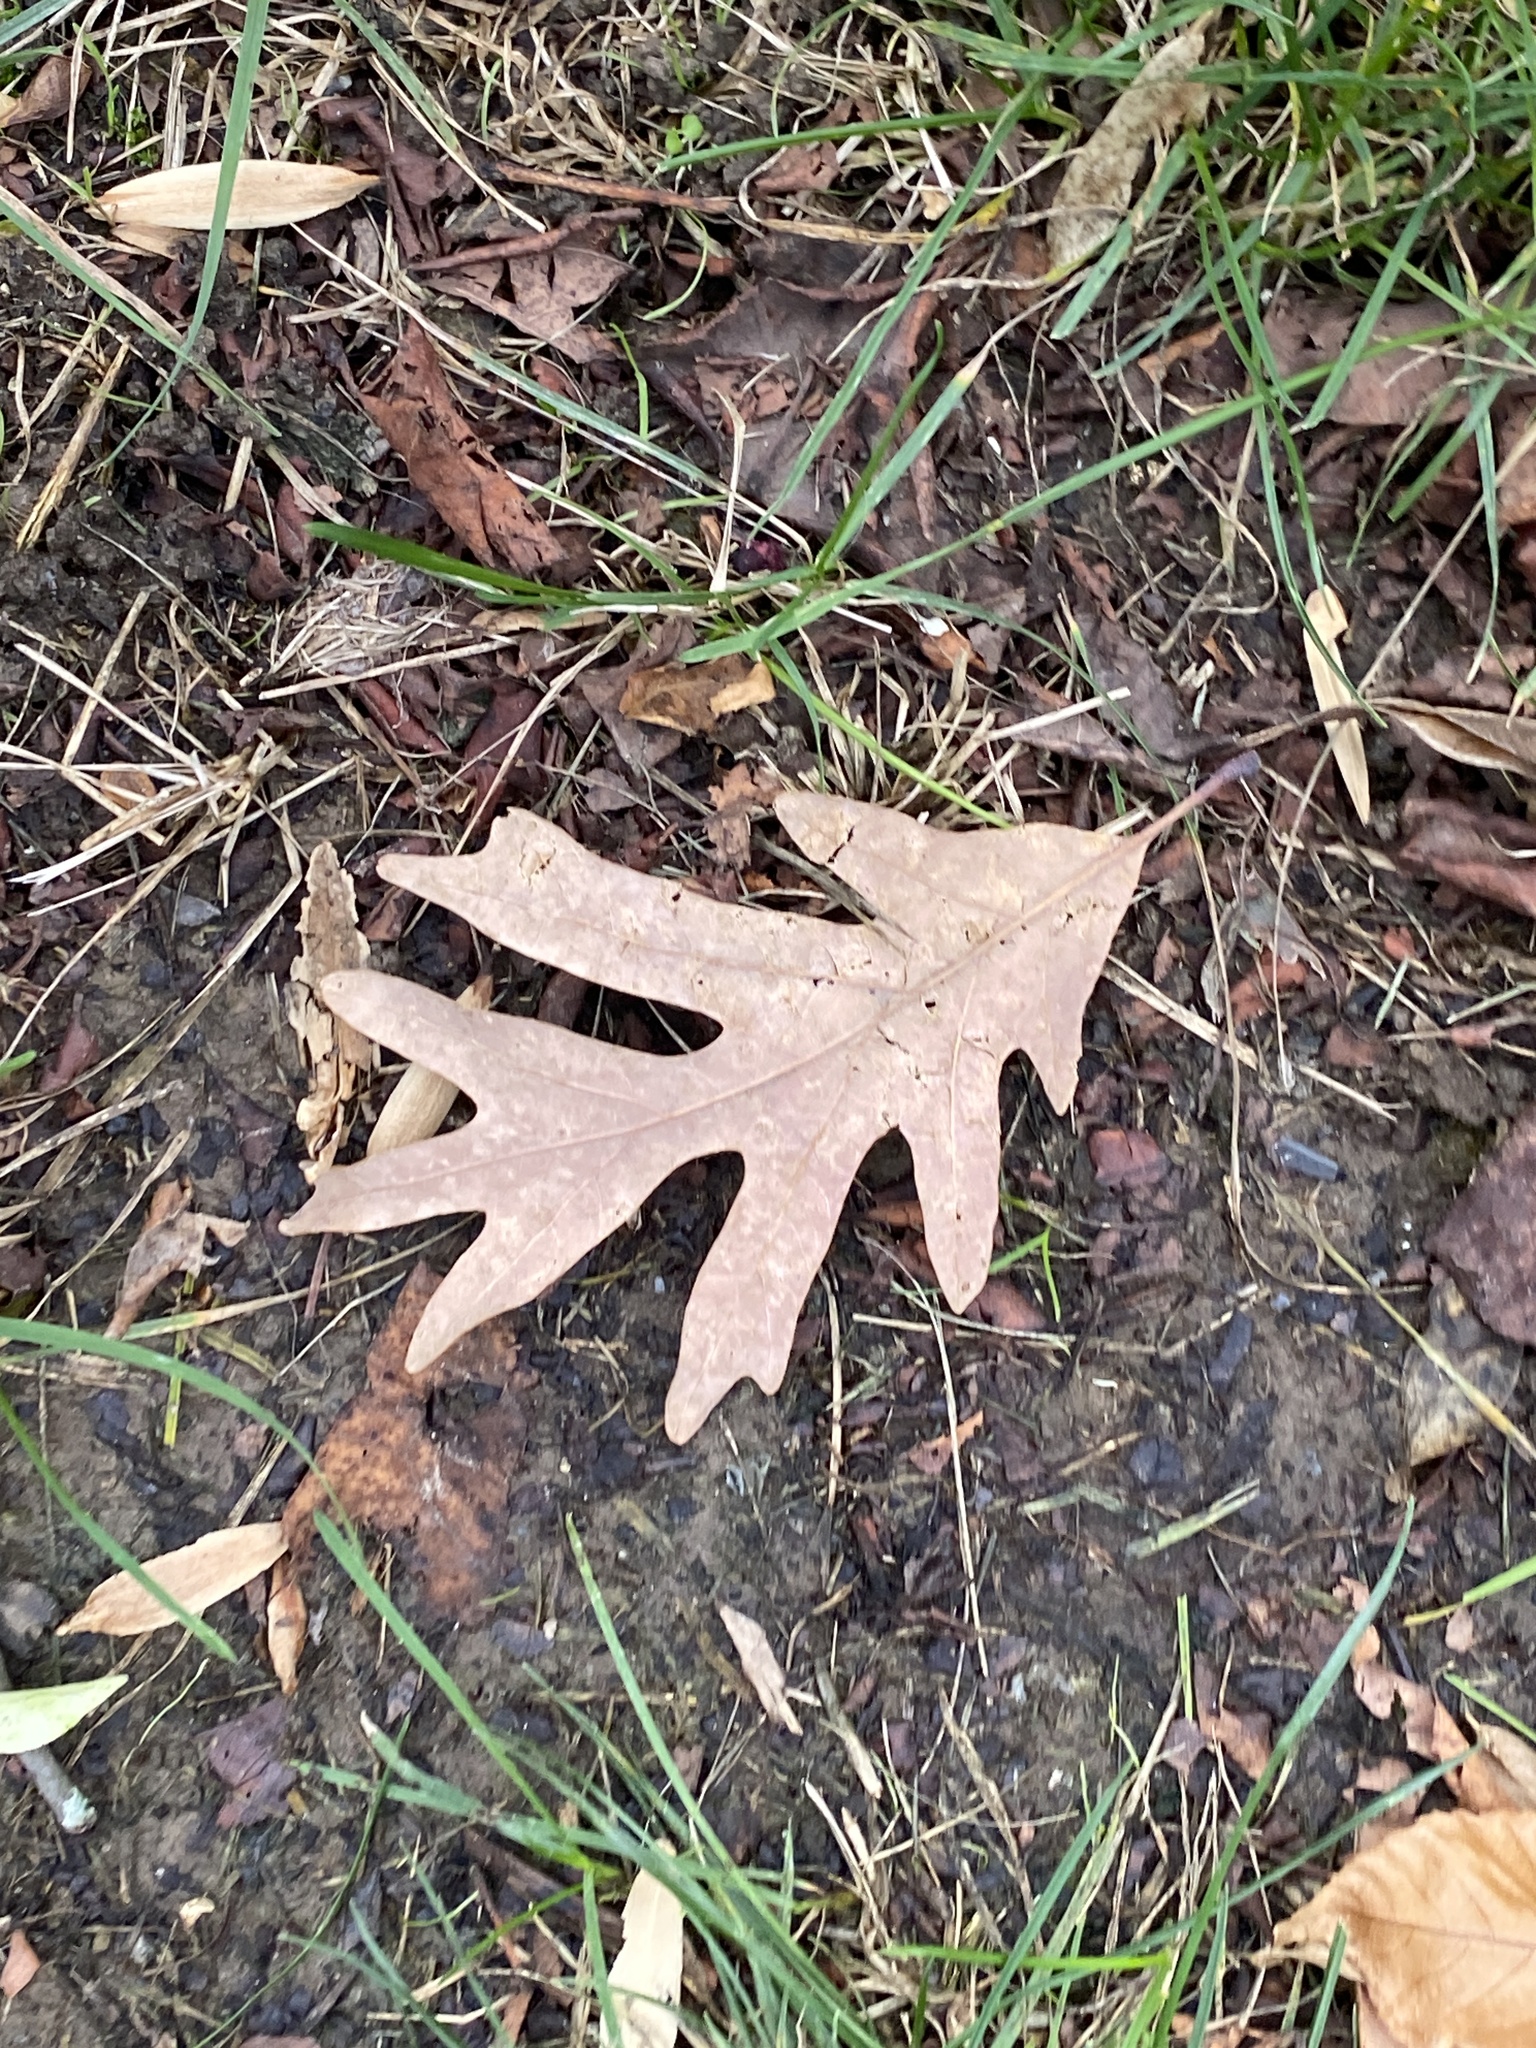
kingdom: Plantae
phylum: Tracheophyta
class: Magnoliopsida
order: Fagales
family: Fagaceae
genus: Quercus
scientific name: Quercus alba
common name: White oak
